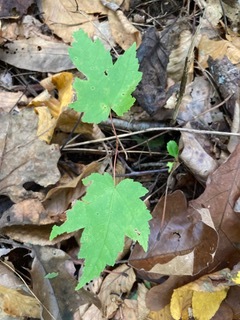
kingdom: Plantae
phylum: Tracheophyta
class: Magnoliopsida
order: Sapindales
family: Sapindaceae
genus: Acer
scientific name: Acer rubrum
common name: Red maple
